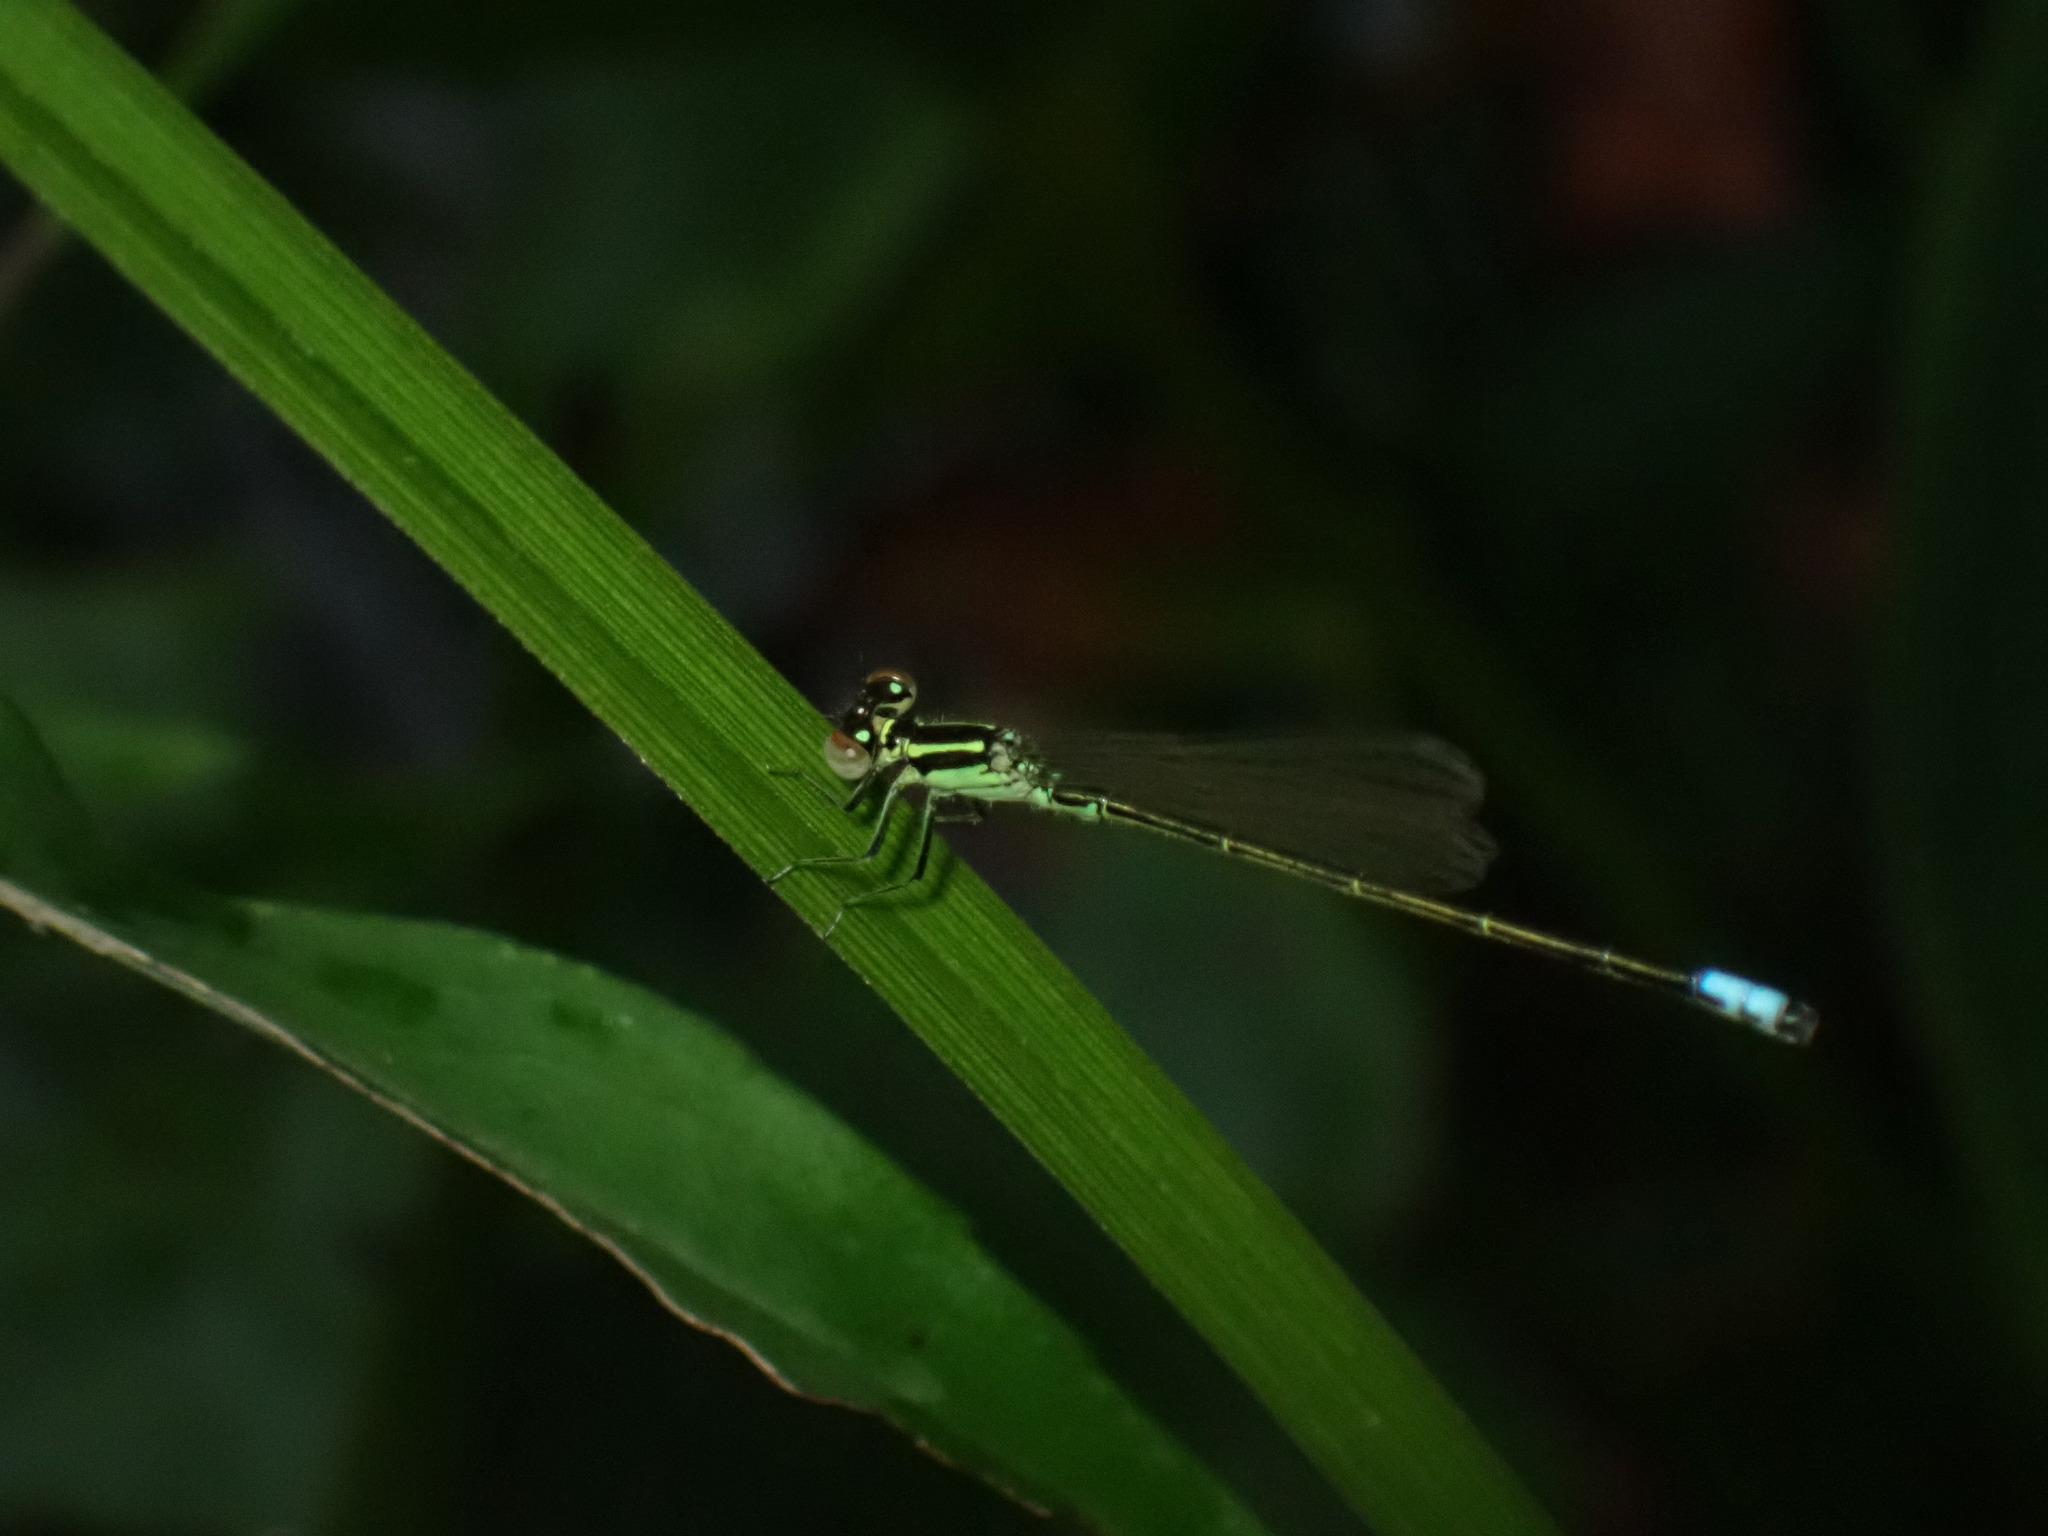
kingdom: Animalia
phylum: Arthropoda
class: Insecta
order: Odonata
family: Coenagrionidae
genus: Ischnura
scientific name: Ischnura verticalis
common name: Eastern forktail
